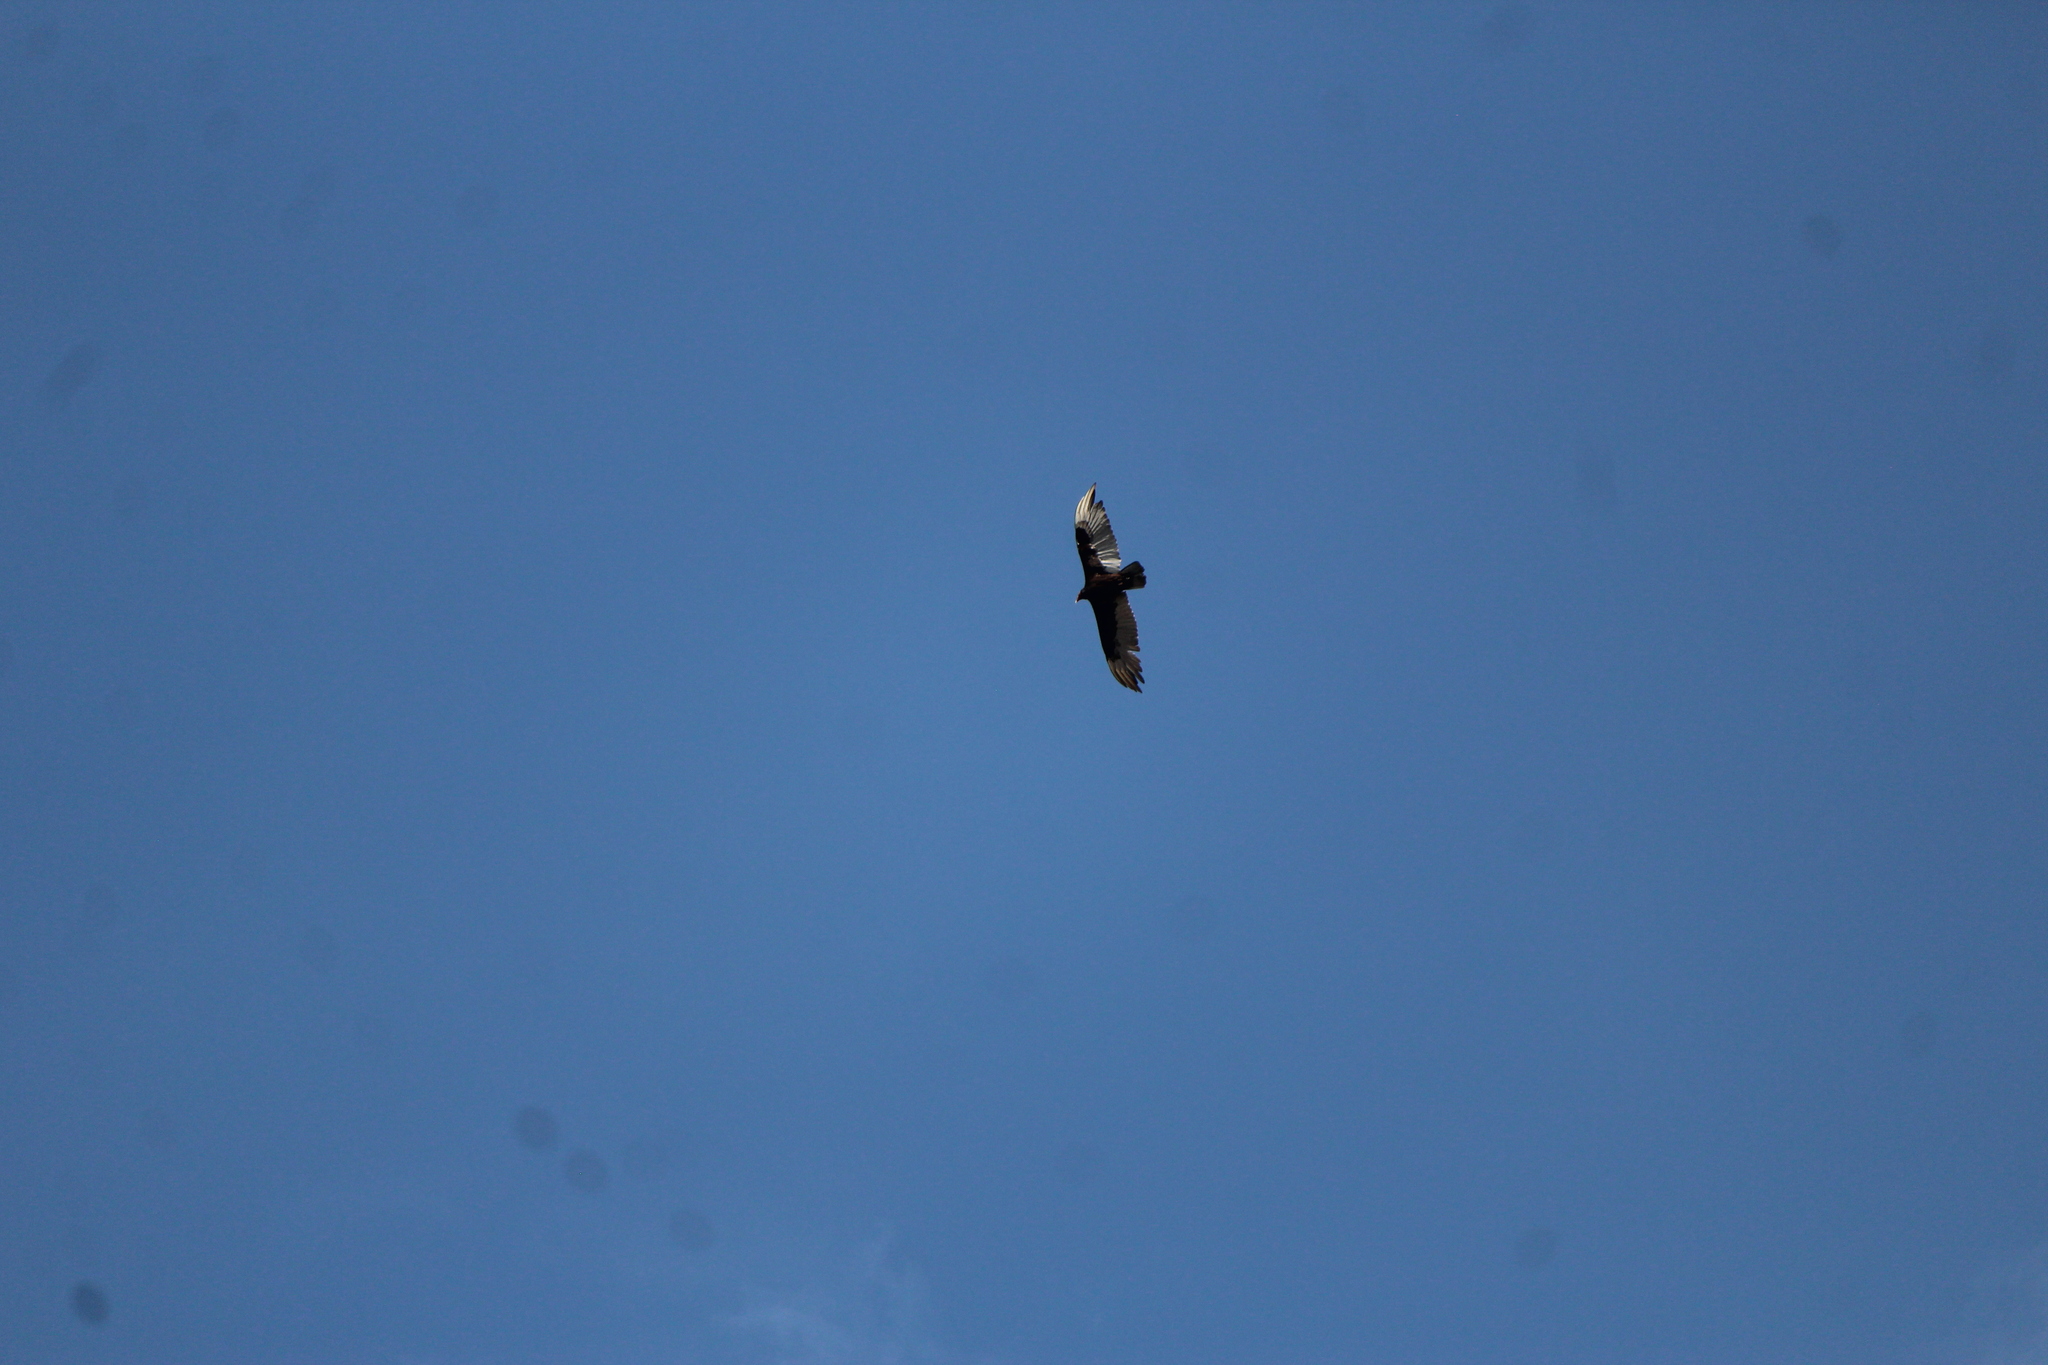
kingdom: Animalia
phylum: Chordata
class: Aves
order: Accipitriformes
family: Cathartidae
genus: Cathartes
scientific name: Cathartes aura
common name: Turkey vulture
